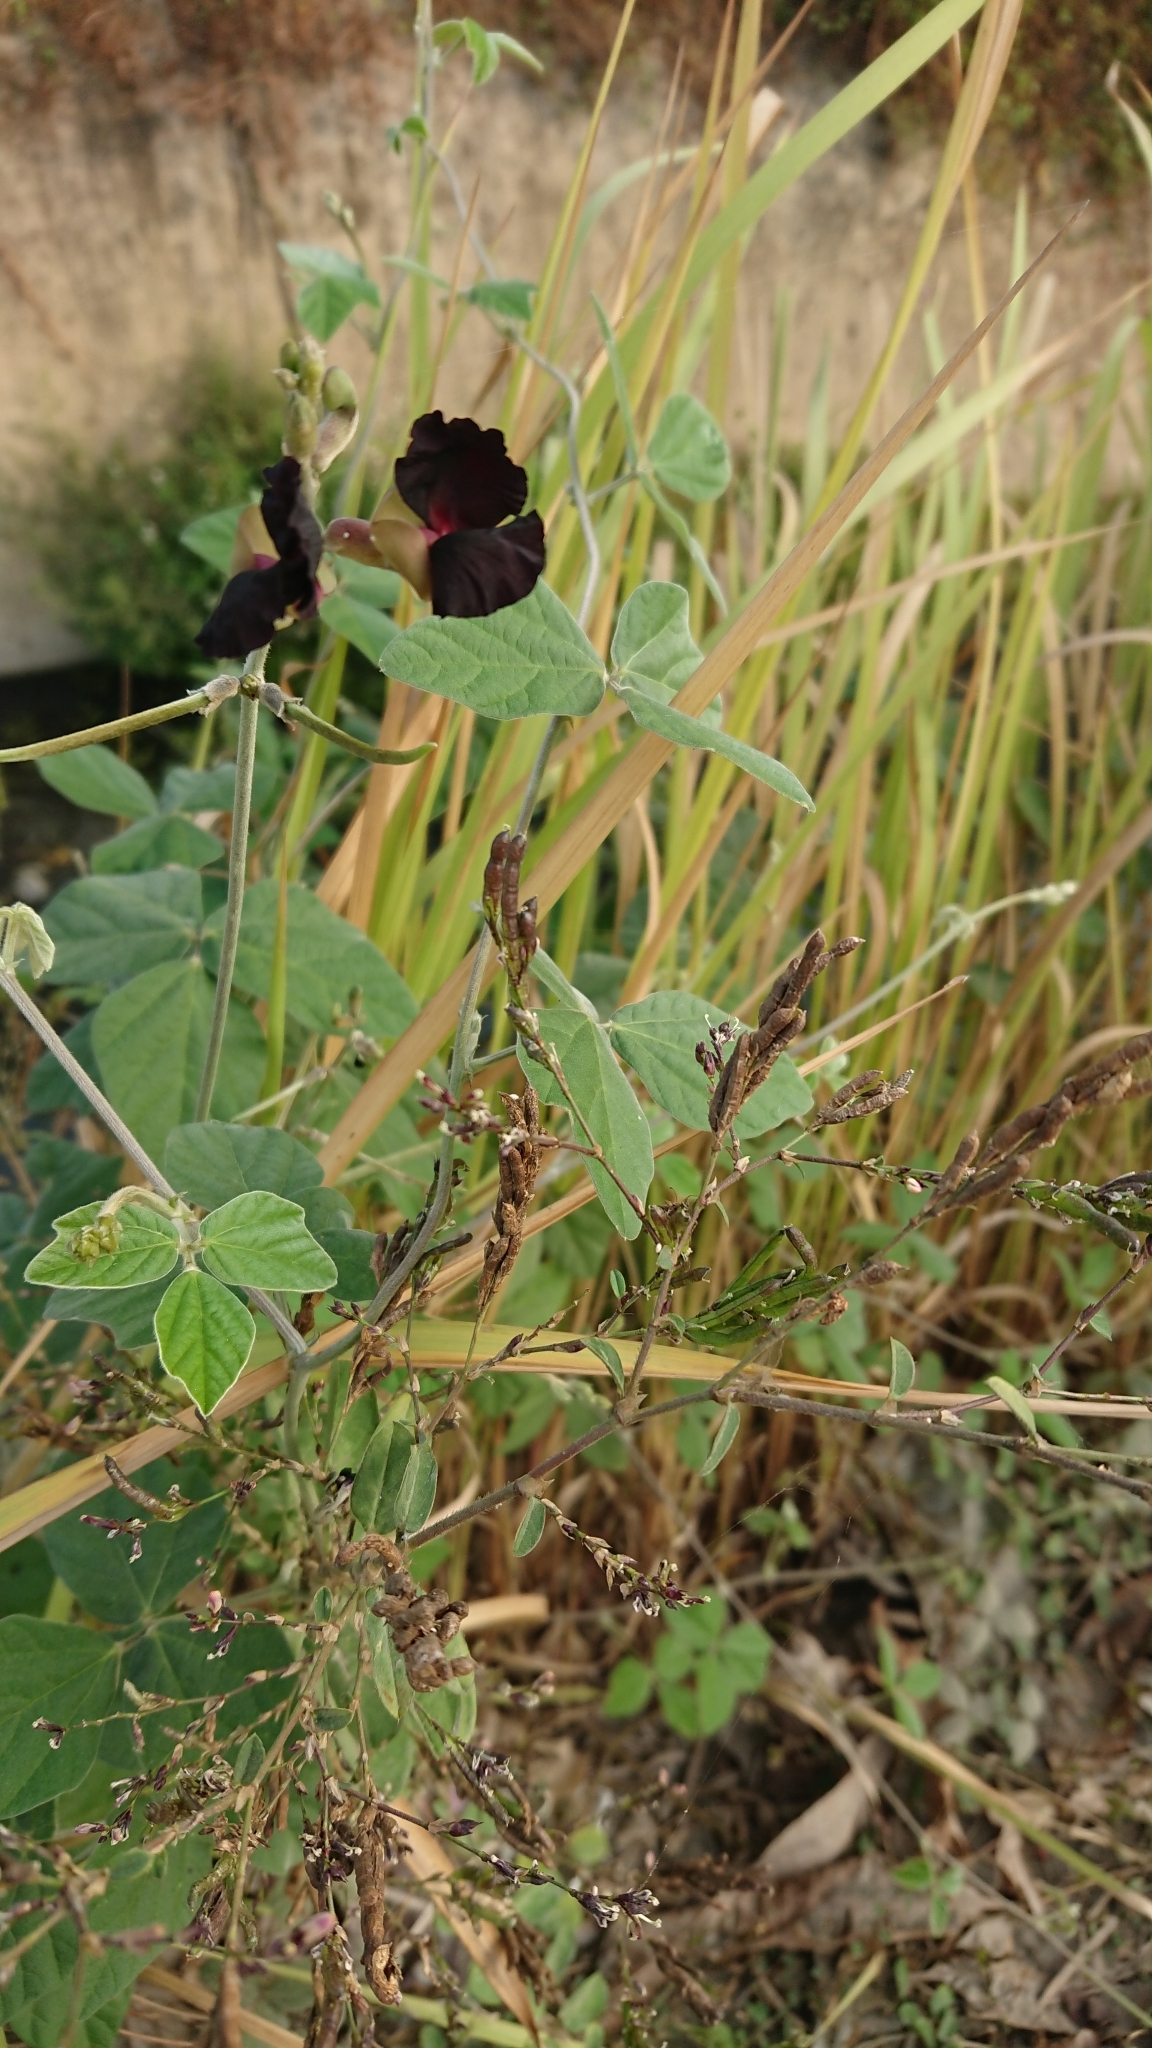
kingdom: Plantae
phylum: Tracheophyta
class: Magnoliopsida
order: Fabales
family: Fabaceae
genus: Macroptilium
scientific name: Macroptilium atropurpureum
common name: Purple bushbean
